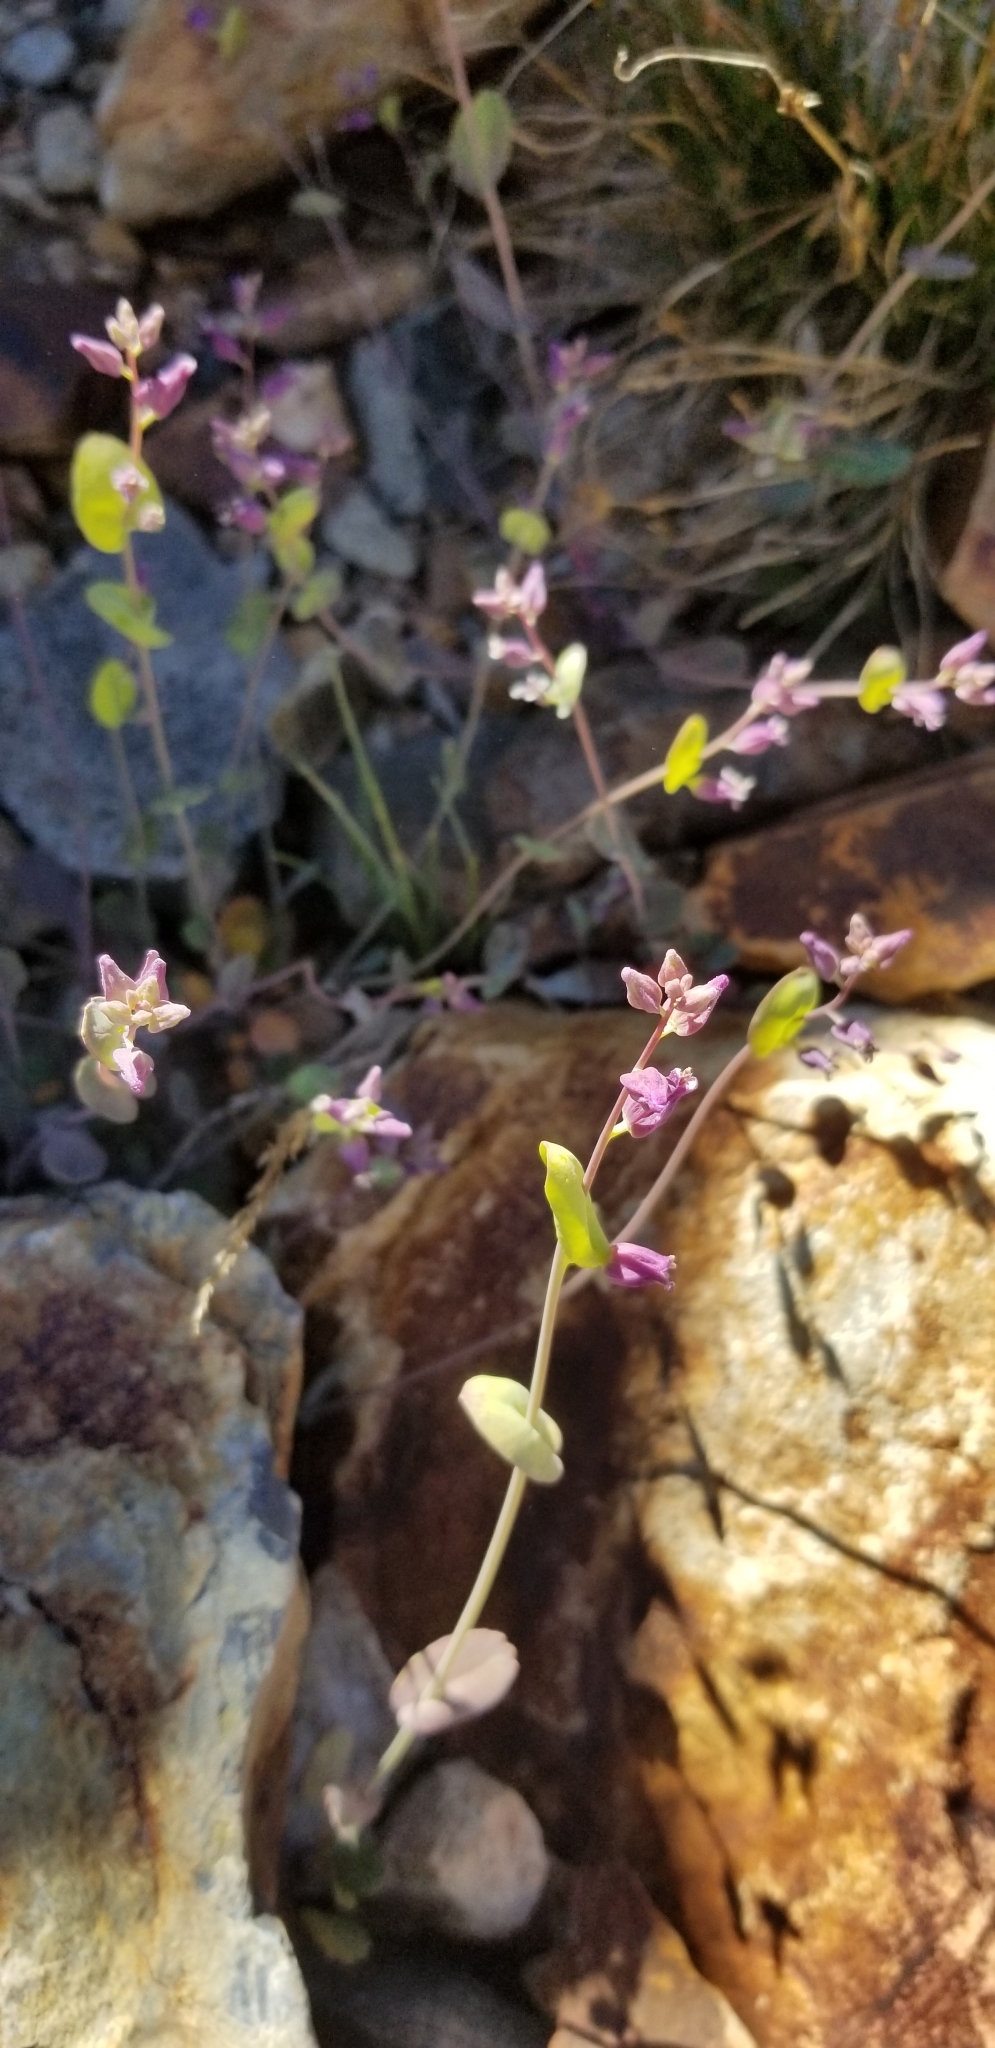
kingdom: Plantae
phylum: Tracheophyta
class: Magnoliopsida
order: Brassicales
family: Brassicaceae
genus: Streptanthus
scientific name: Streptanthus tortuosus
